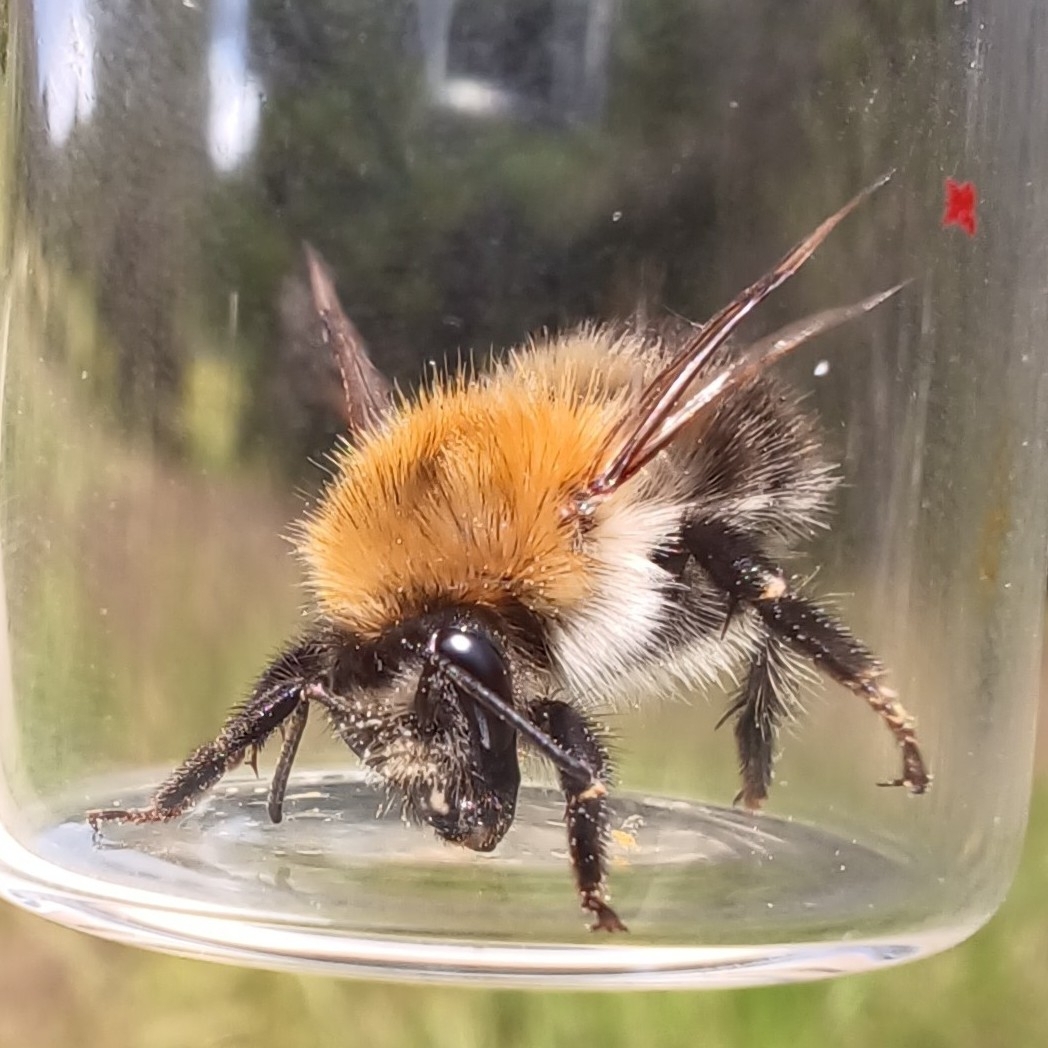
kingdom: Animalia
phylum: Arthropoda
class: Insecta
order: Hymenoptera
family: Apidae
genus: Bombus
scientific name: Bombus pascuorum
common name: Common carder bee
